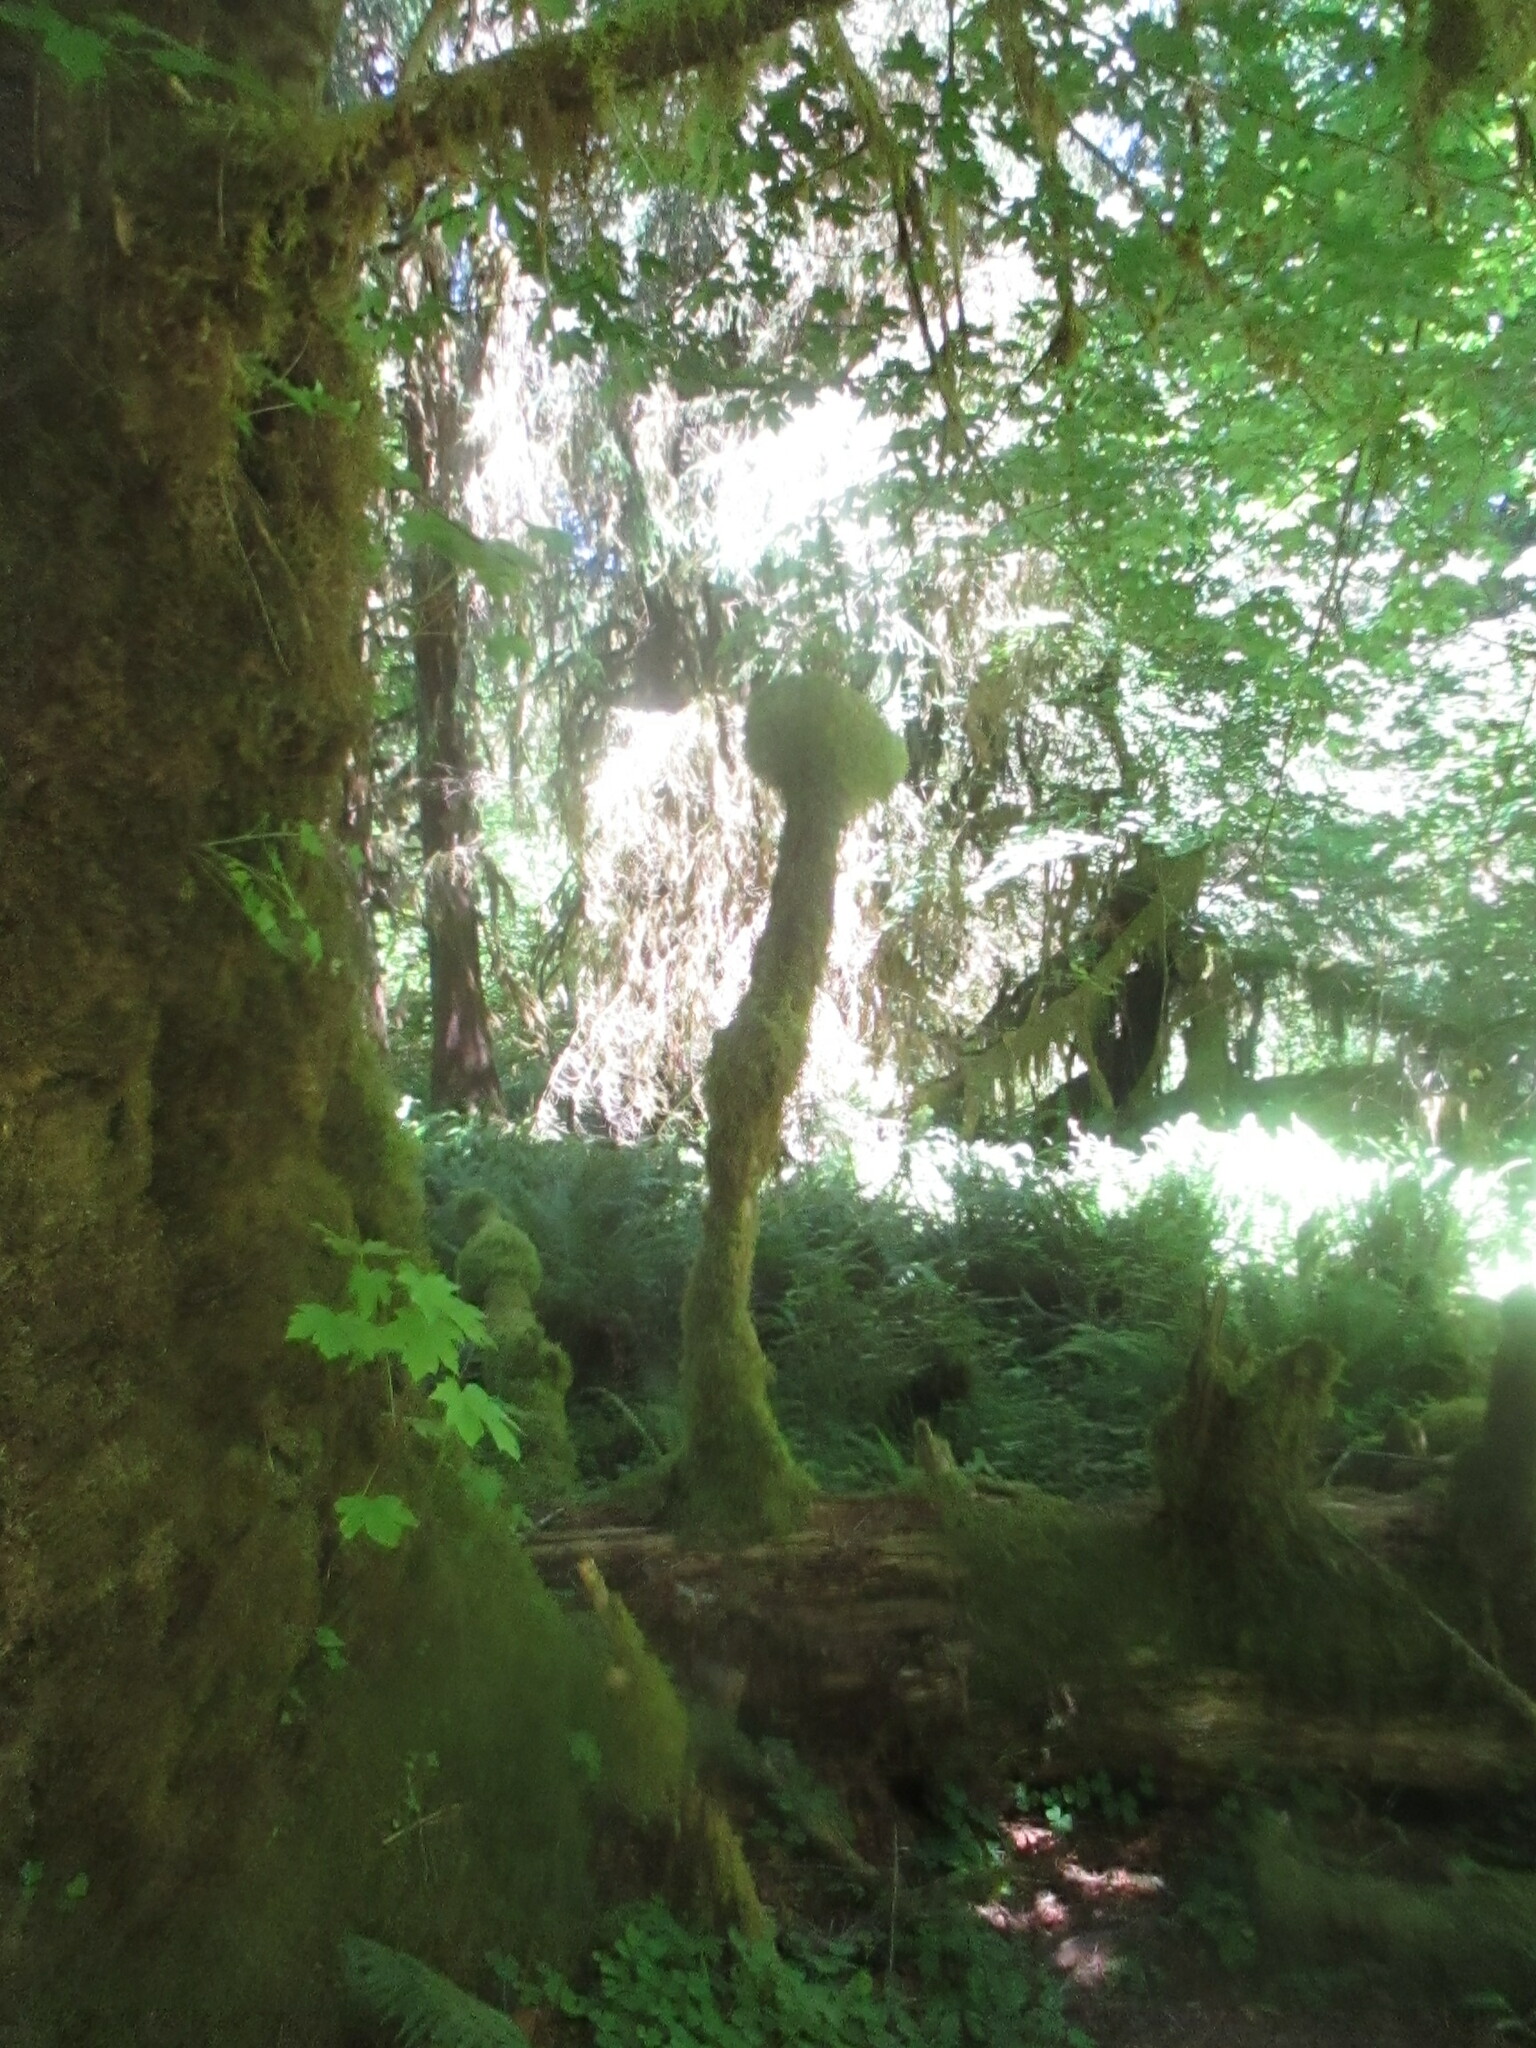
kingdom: Plantae
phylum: Tracheophyta
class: Magnoliopsida
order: Sapindales
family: Sapindaceae
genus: Acer
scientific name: Acer macrophyllum
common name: Oregon maple
